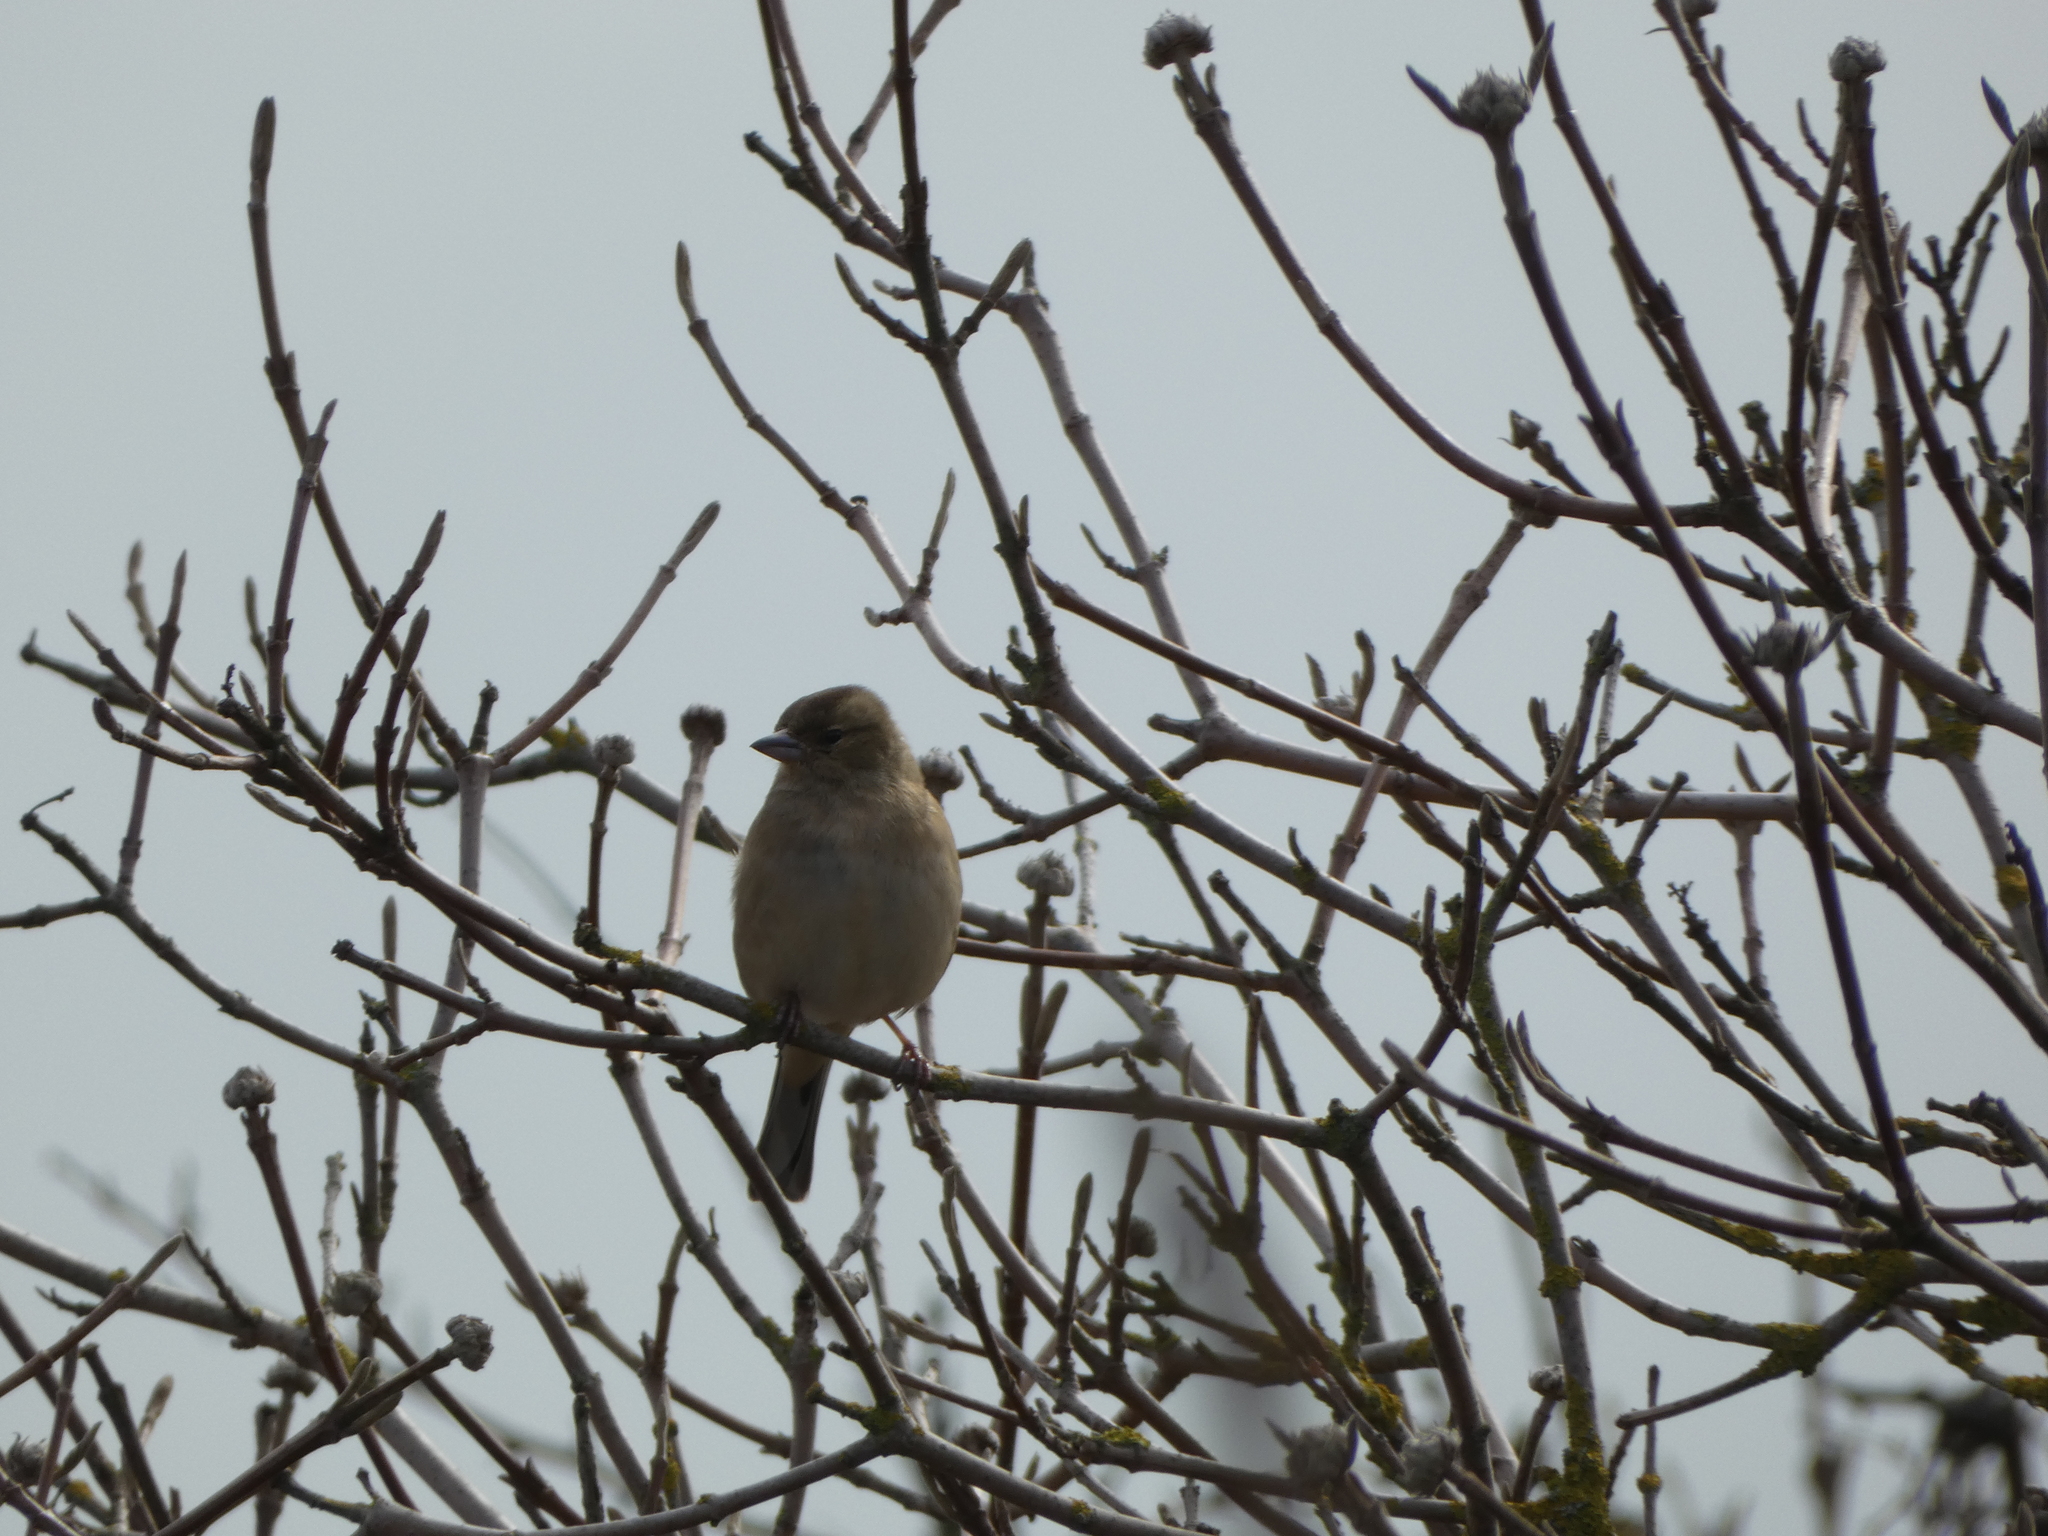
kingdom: Animalia
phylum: Chordata
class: Aves
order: Passeriformes
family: Fringillidae
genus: Fringilla
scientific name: Fringilla coelebs
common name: Common chaffinch
